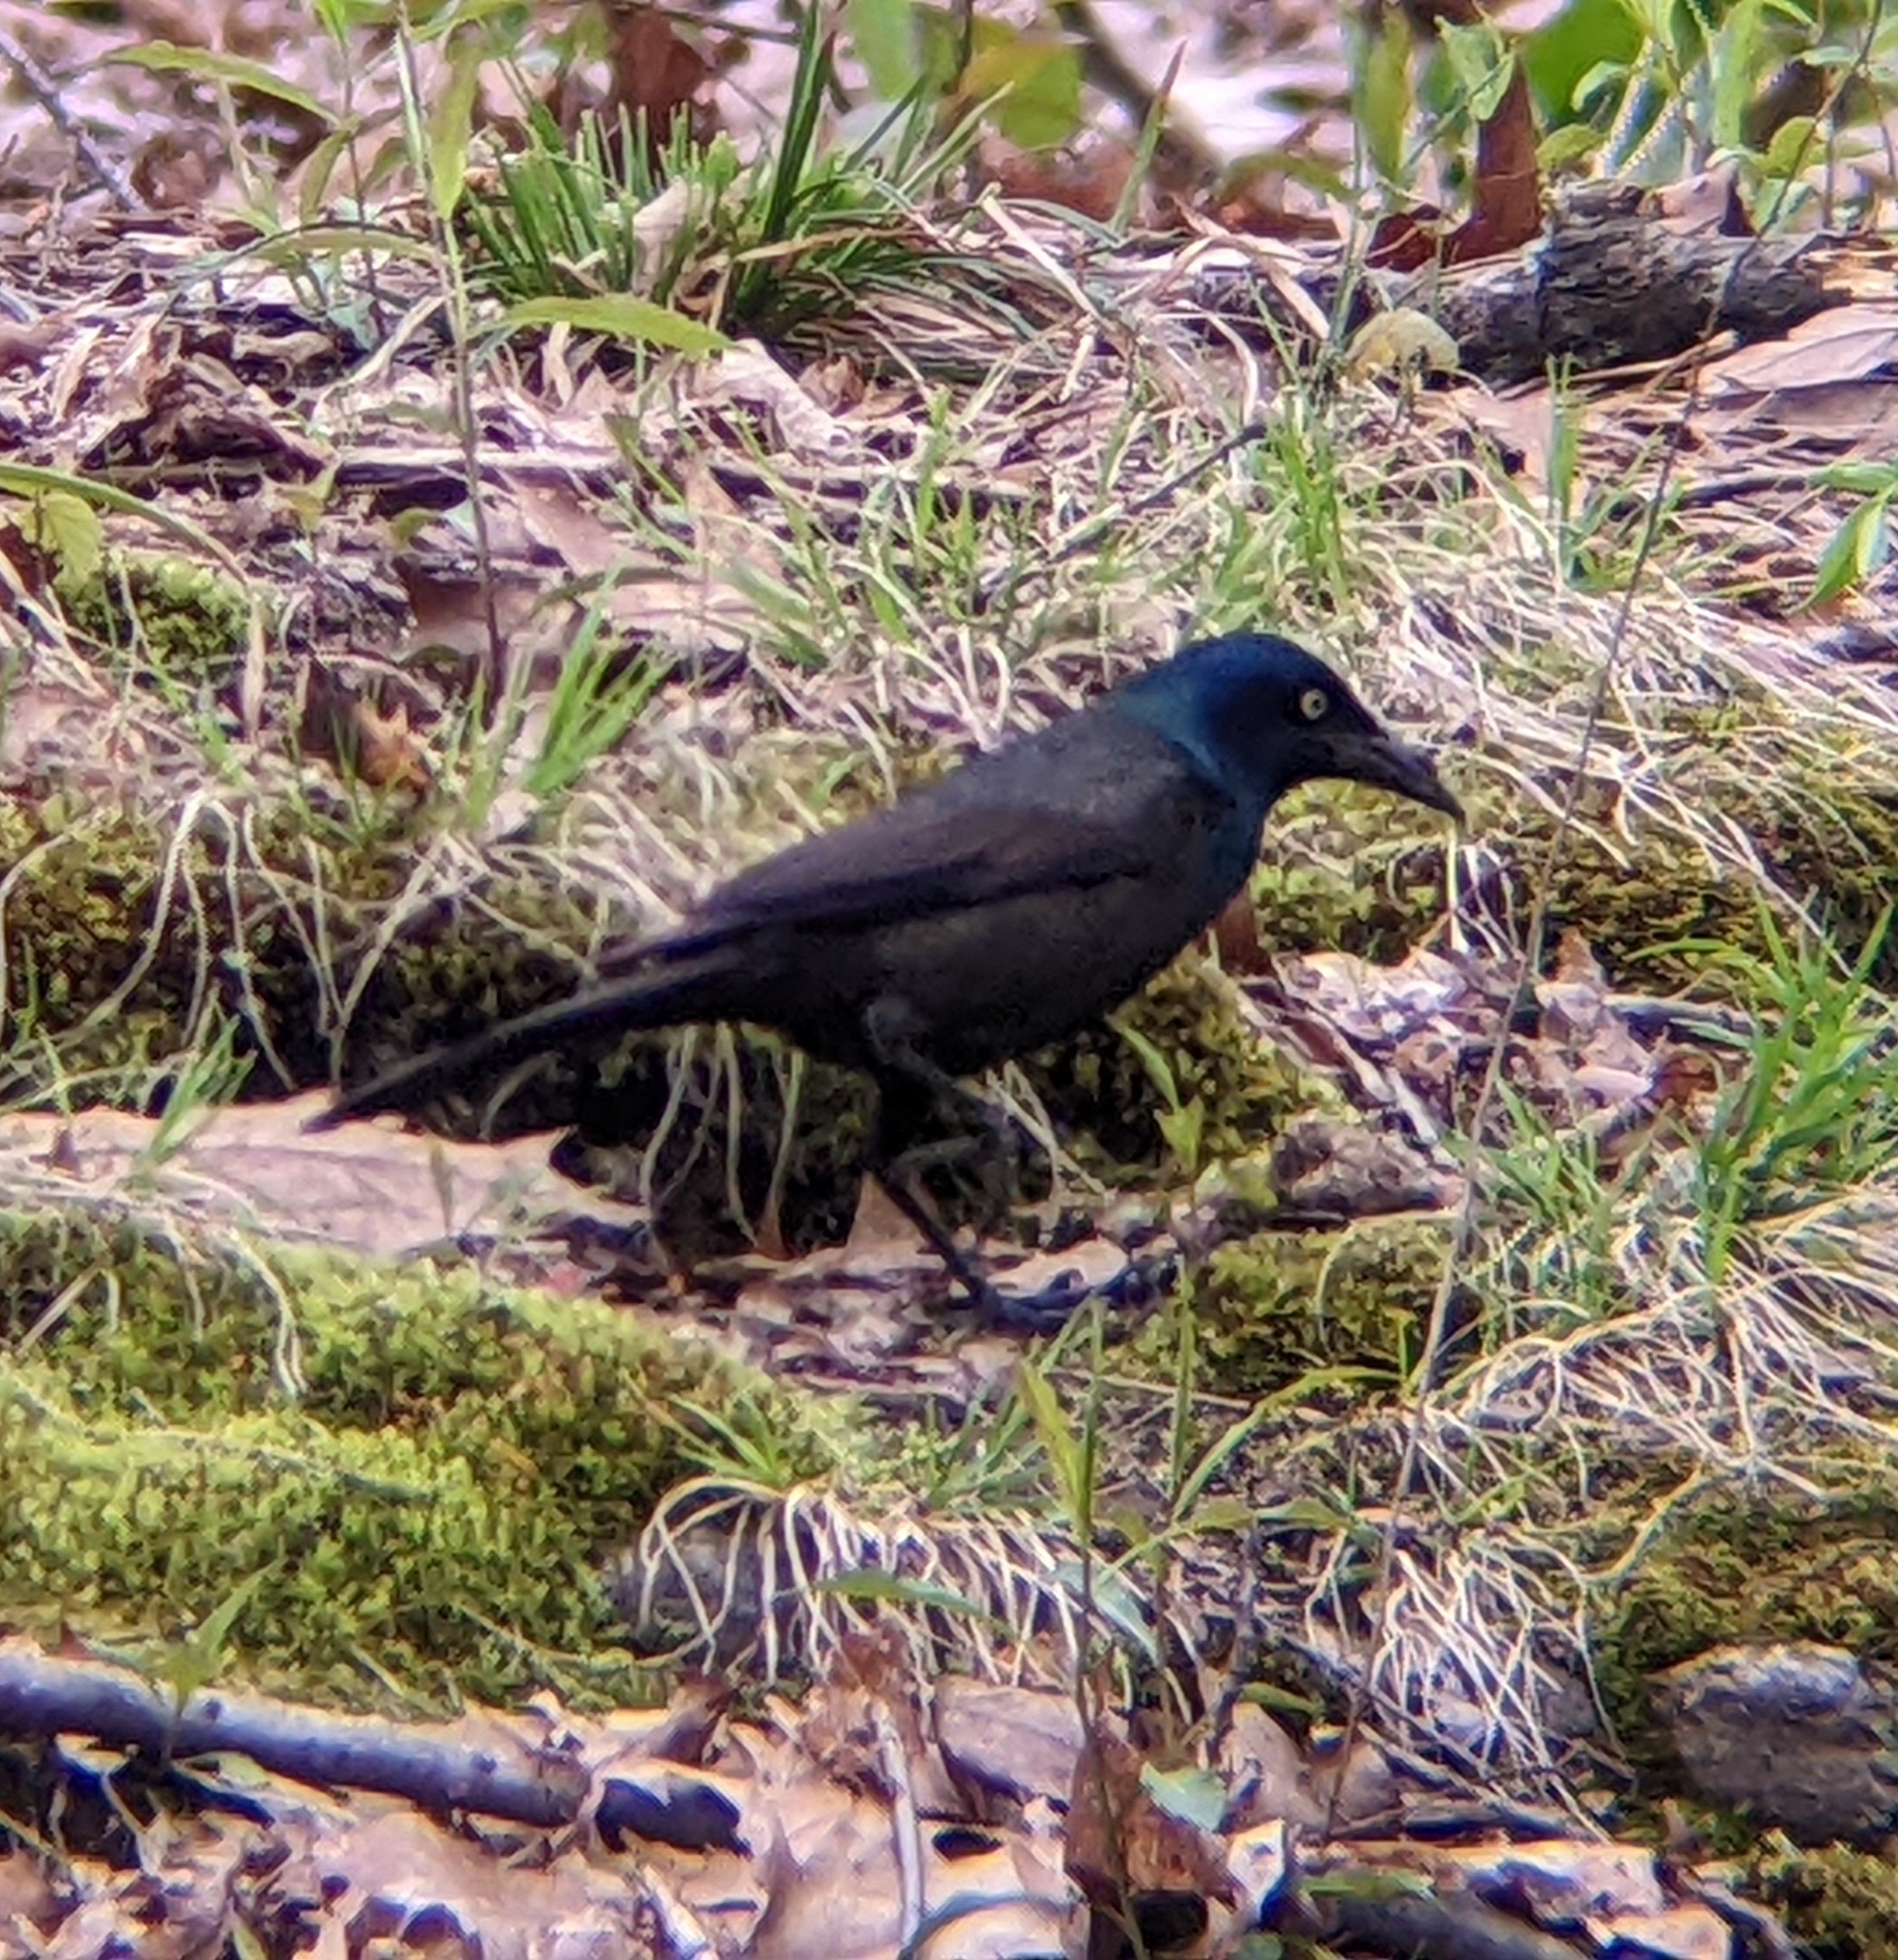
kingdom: Animalia
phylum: Chordata
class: Aves
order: Passeriformes
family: Icteridae
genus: Quiscalus
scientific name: Quiscalus quiscula
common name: Common grackle
